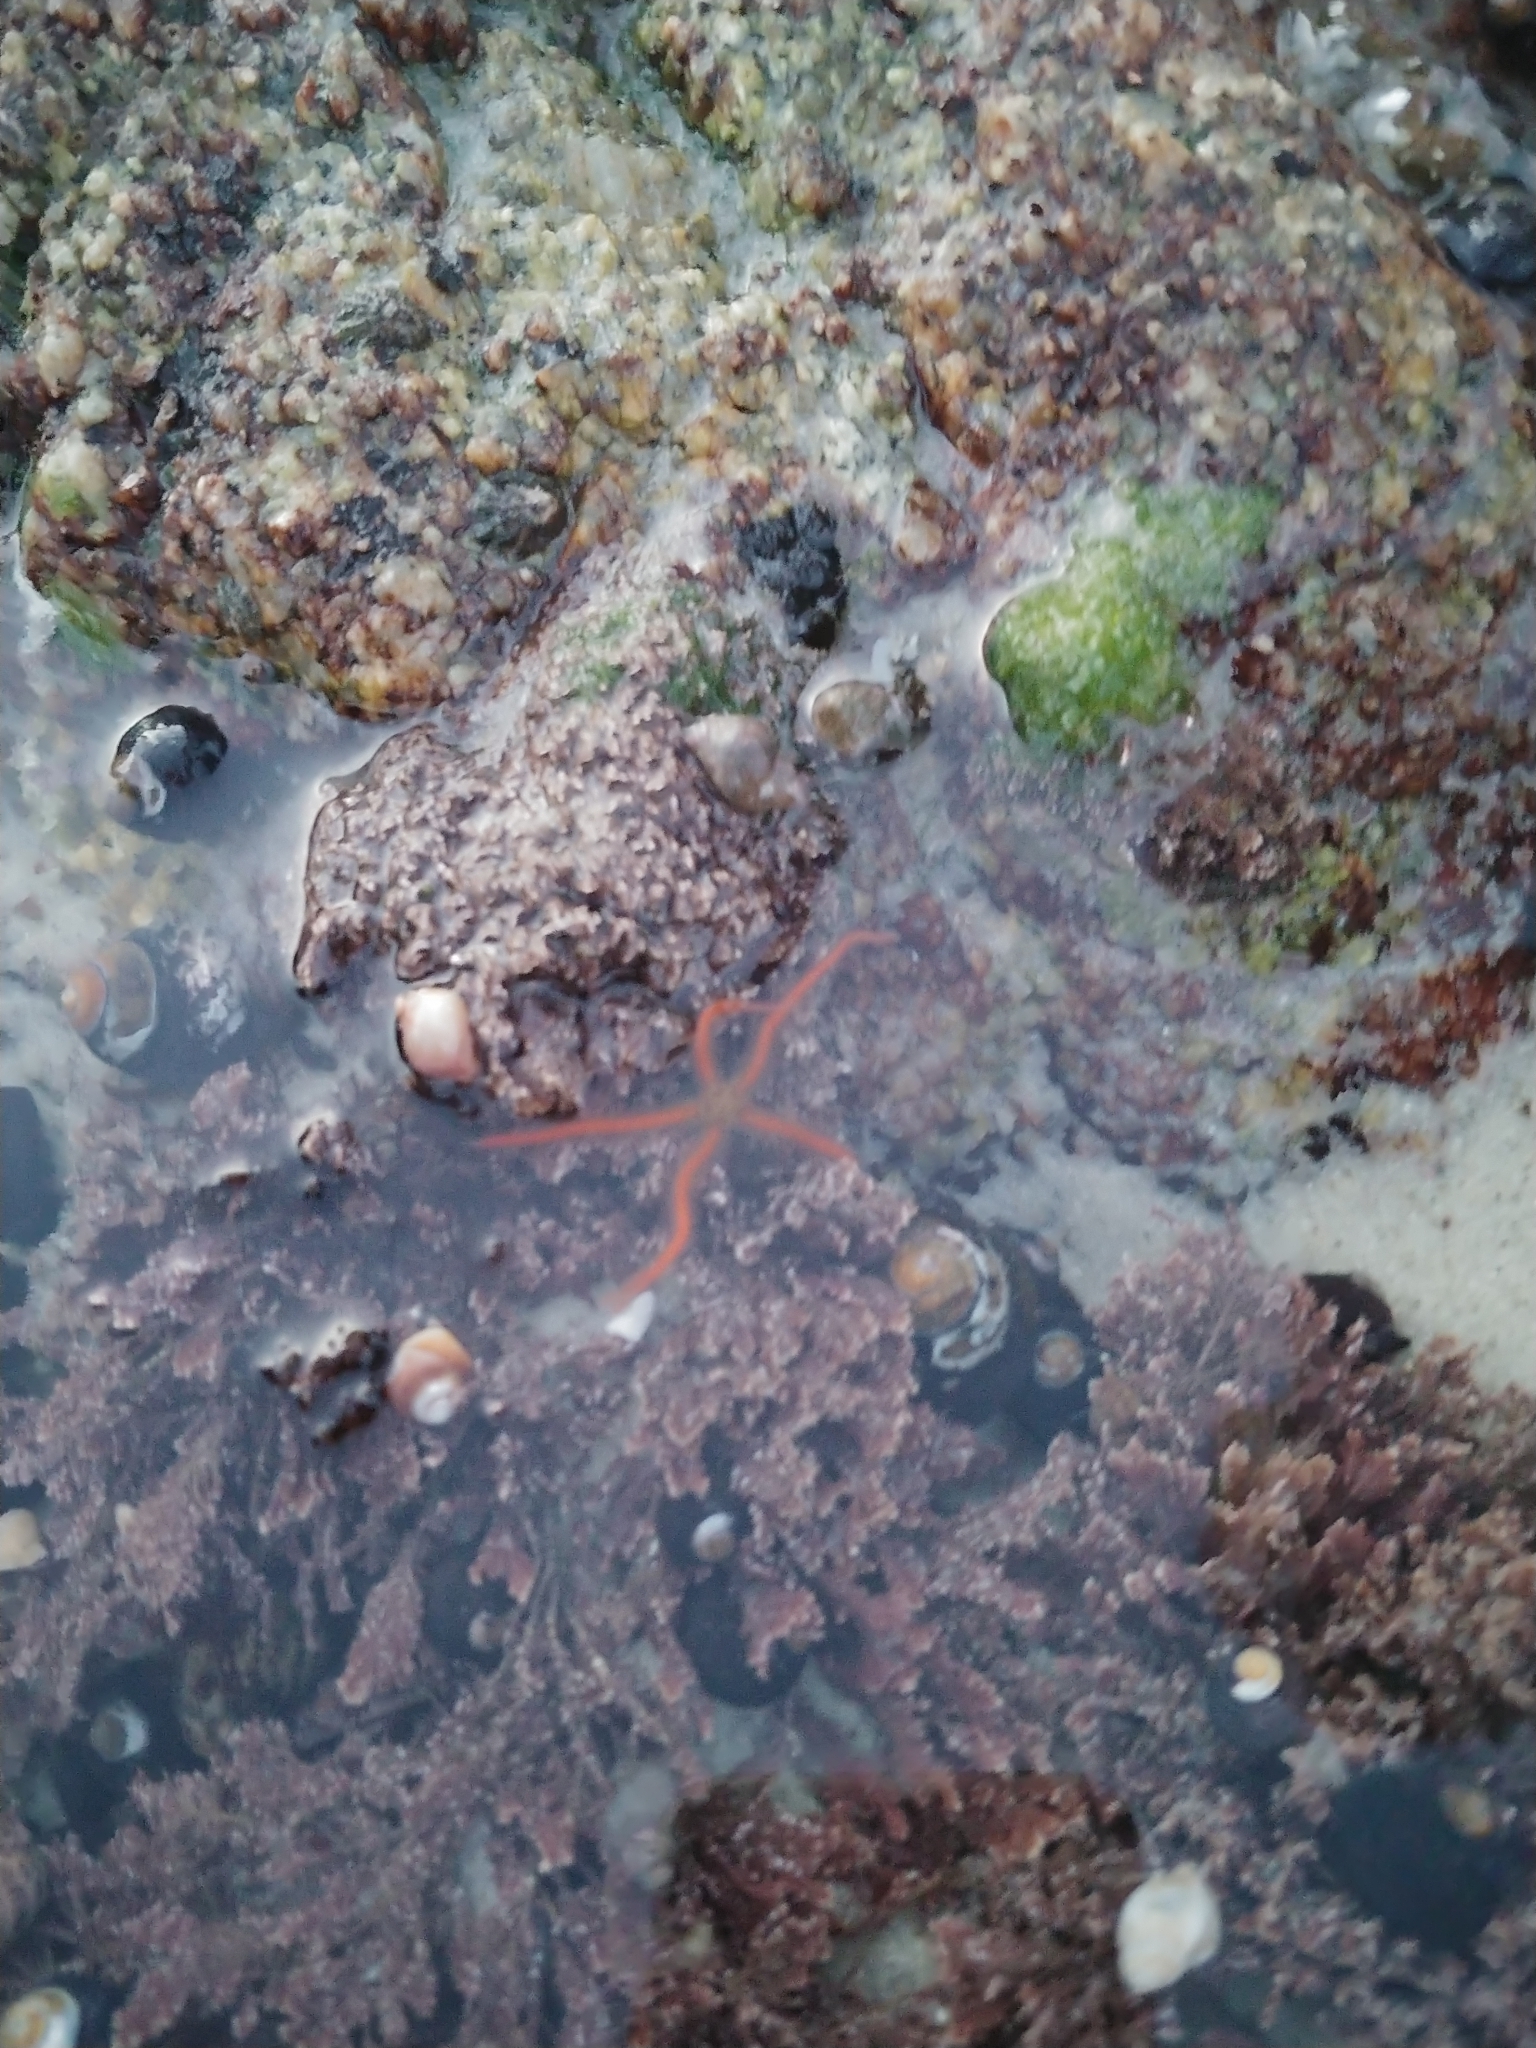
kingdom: Animalia
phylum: Echinodermata
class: Ophiuroidea
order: Amphilepidida
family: Ophiotrichidae
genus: Ophiothrix
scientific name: Ophiothrix spiculata
